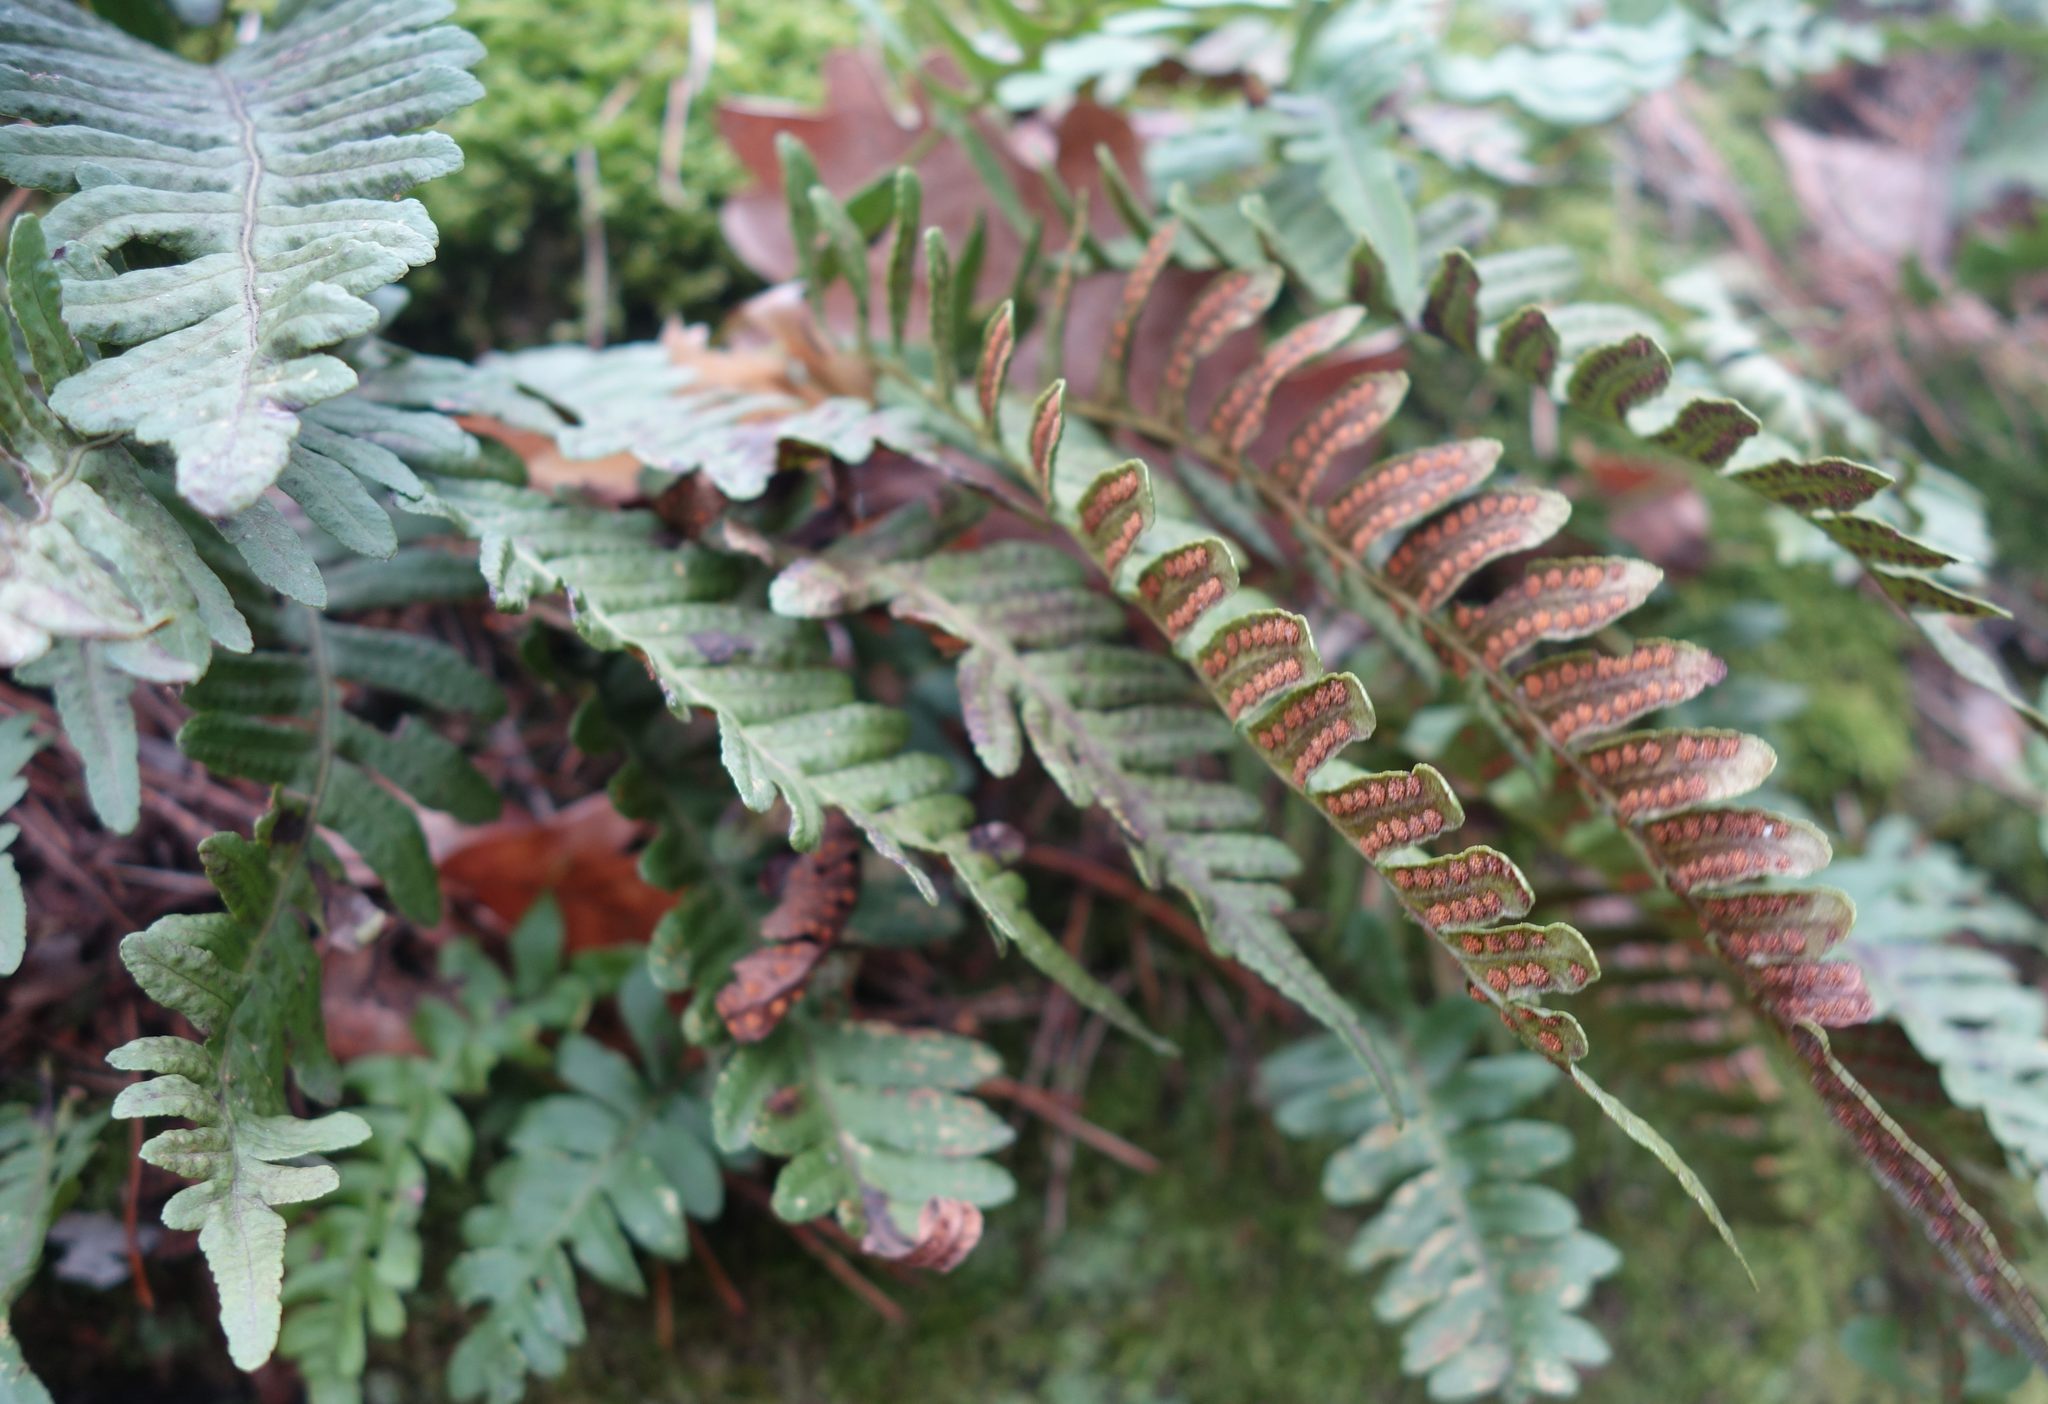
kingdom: Plantae
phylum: Tracheophyta
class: Polypodiopsida
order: Polypodiales
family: Polypodiaceae
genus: Polypodium
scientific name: Polypodium vulgare
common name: Common polypody
